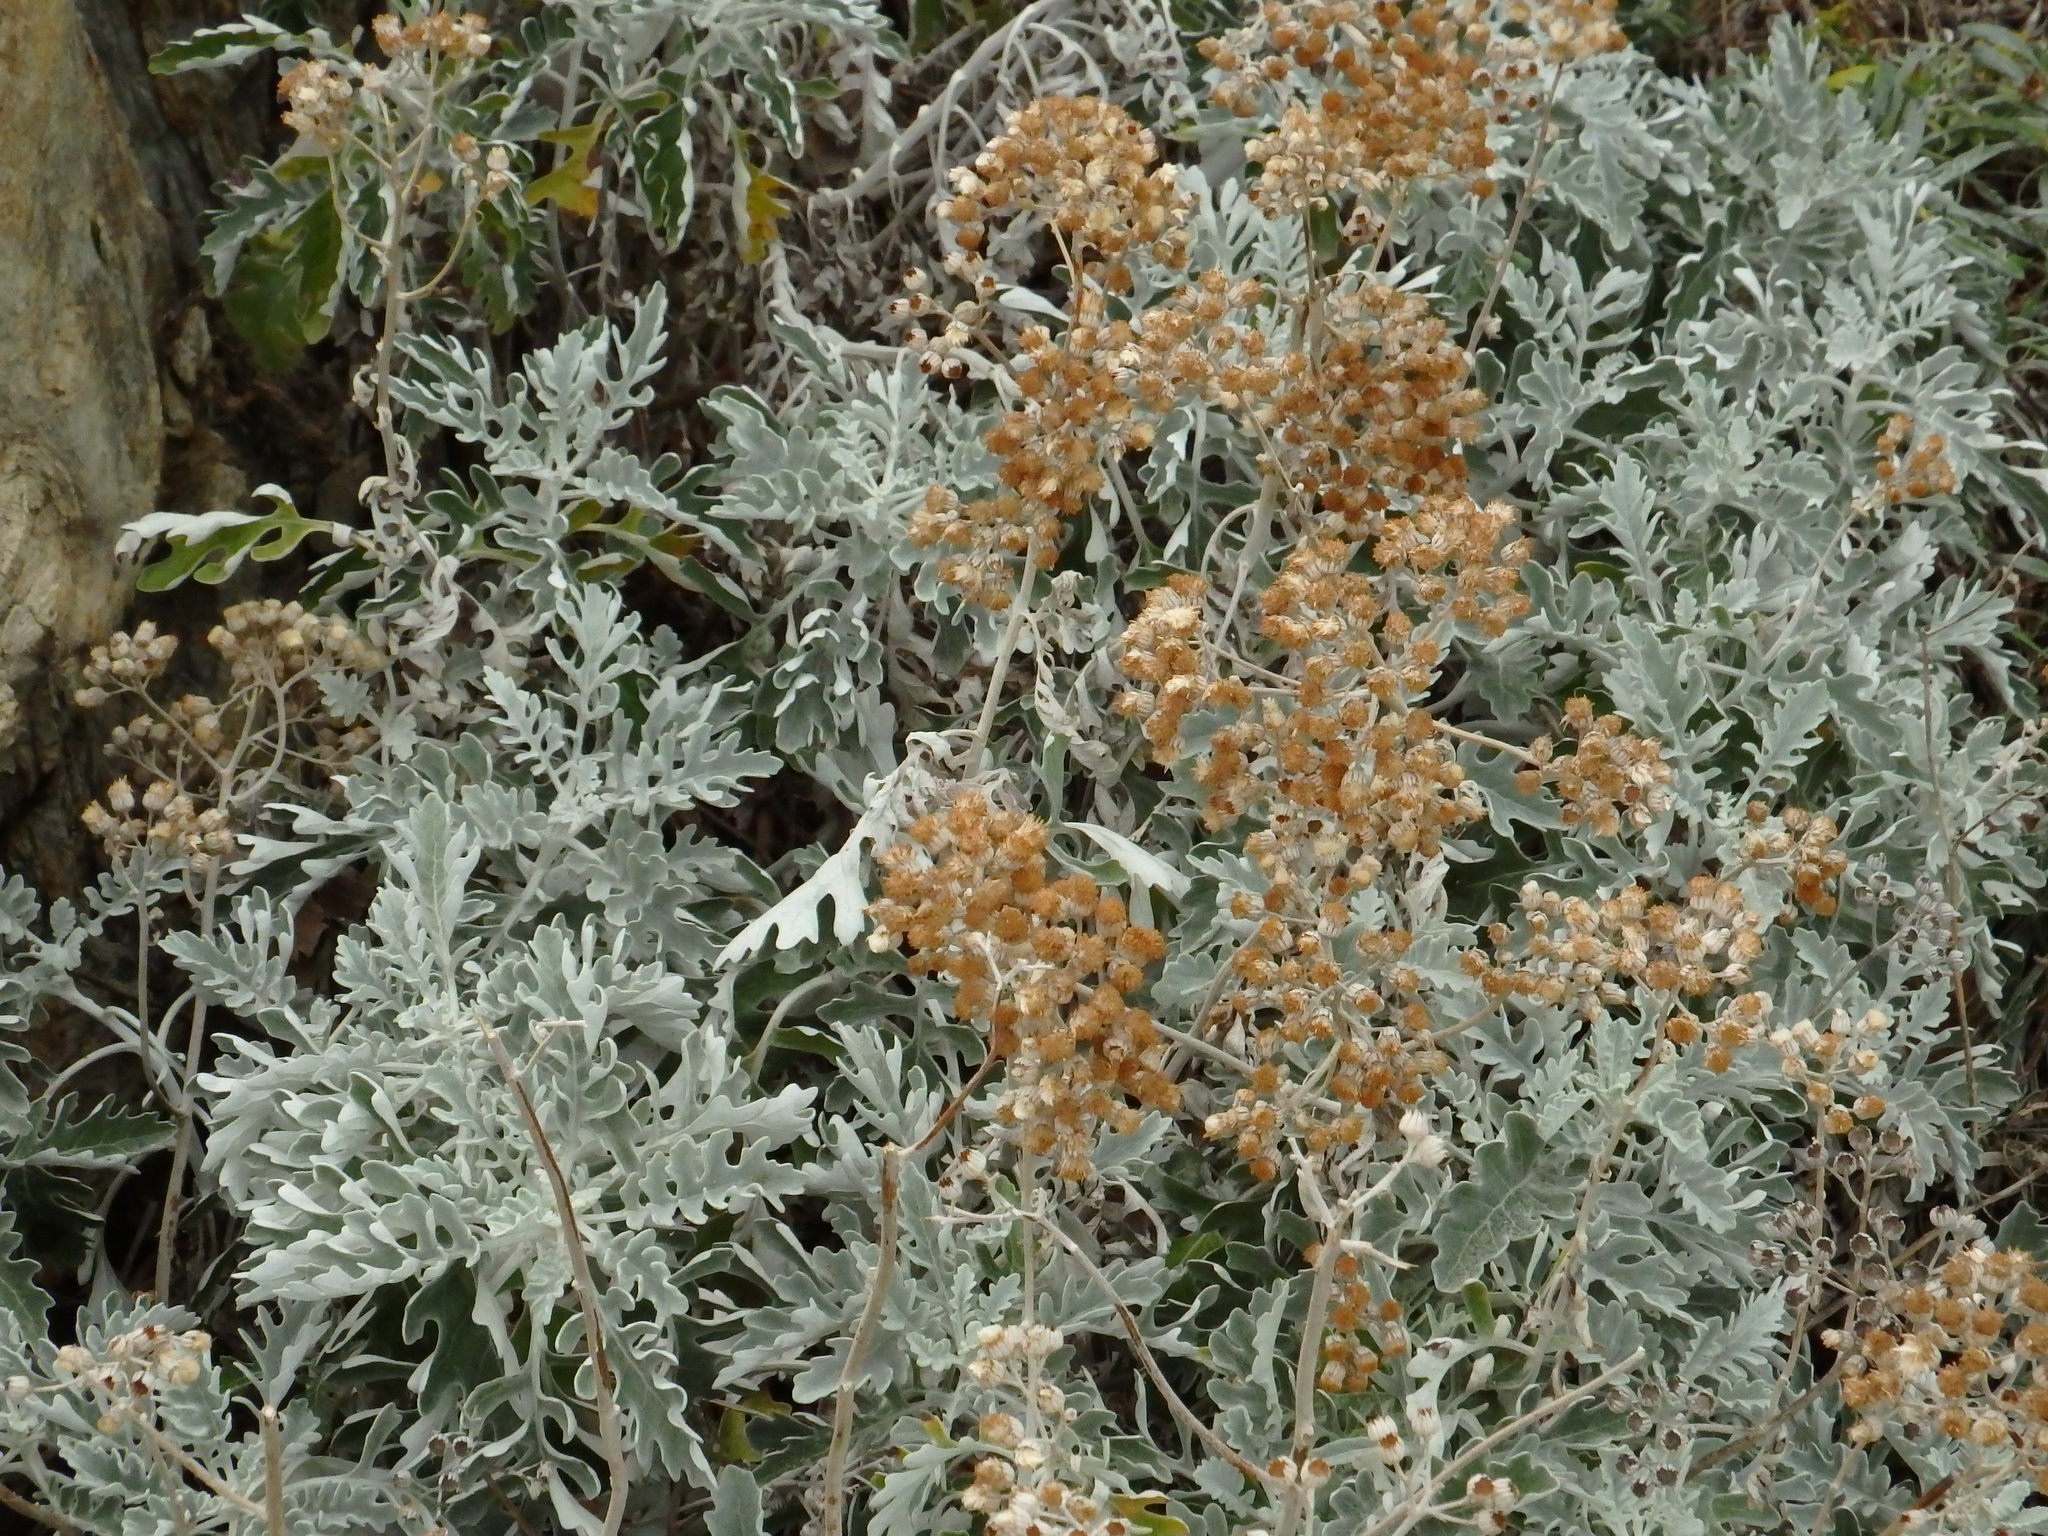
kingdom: Plantae
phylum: Tracheophyta
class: Magnoliopsida
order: Asterales
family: Asteraceae
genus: Jacobaea
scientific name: Jacobaea maritima
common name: Silver ragwort
